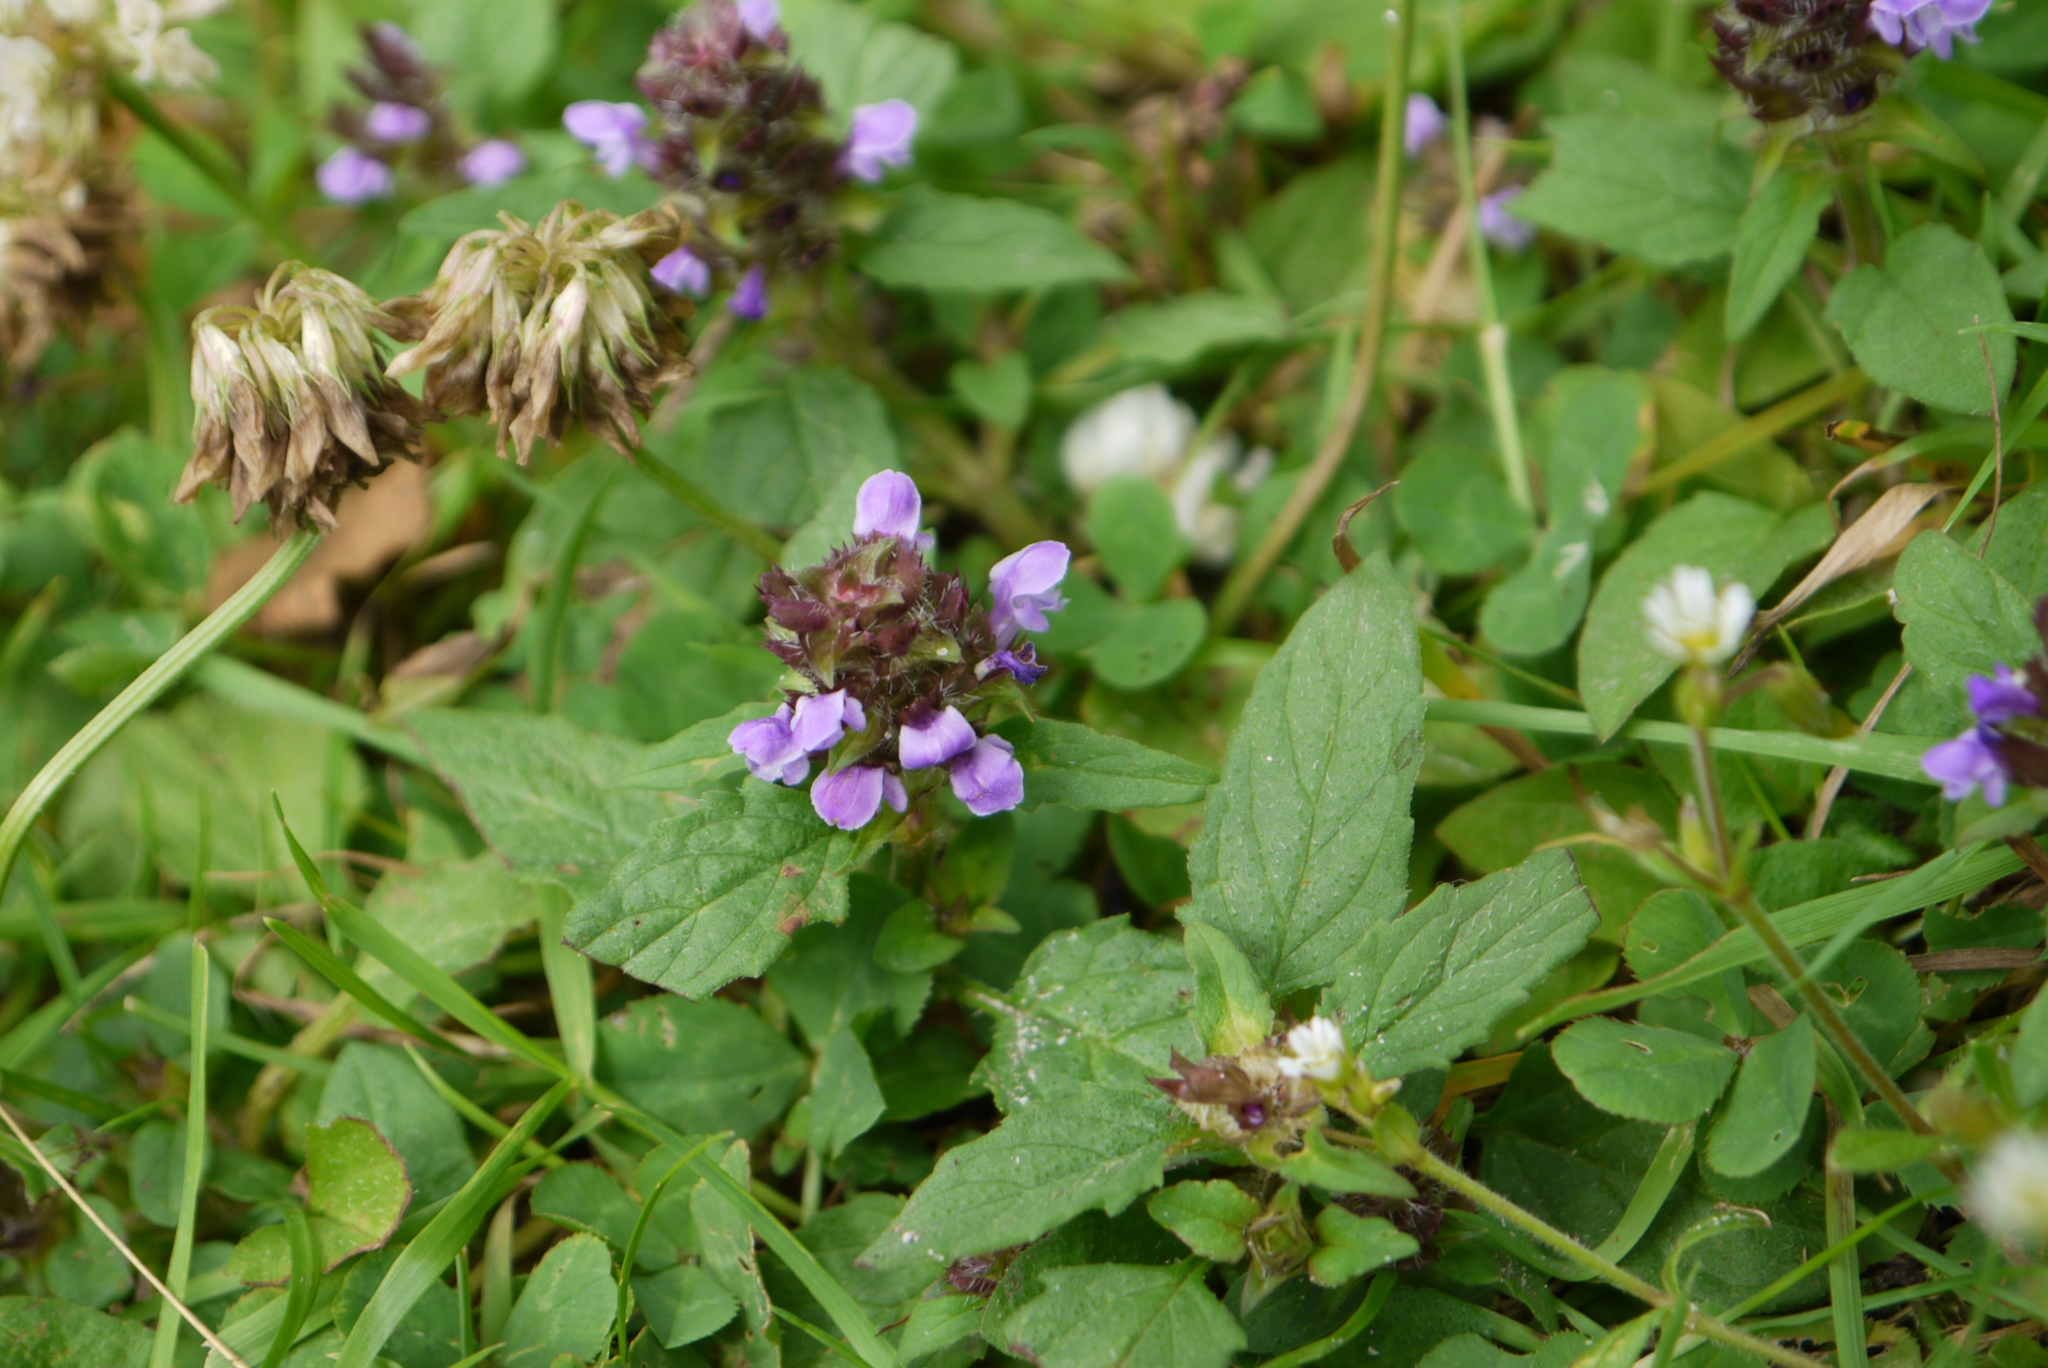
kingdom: Plantae
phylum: Tracheophyta
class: Magnoliopsida
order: Lamiales
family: Lamiaceae
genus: Prunella
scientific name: Prunella vulgaris
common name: Heal-all
